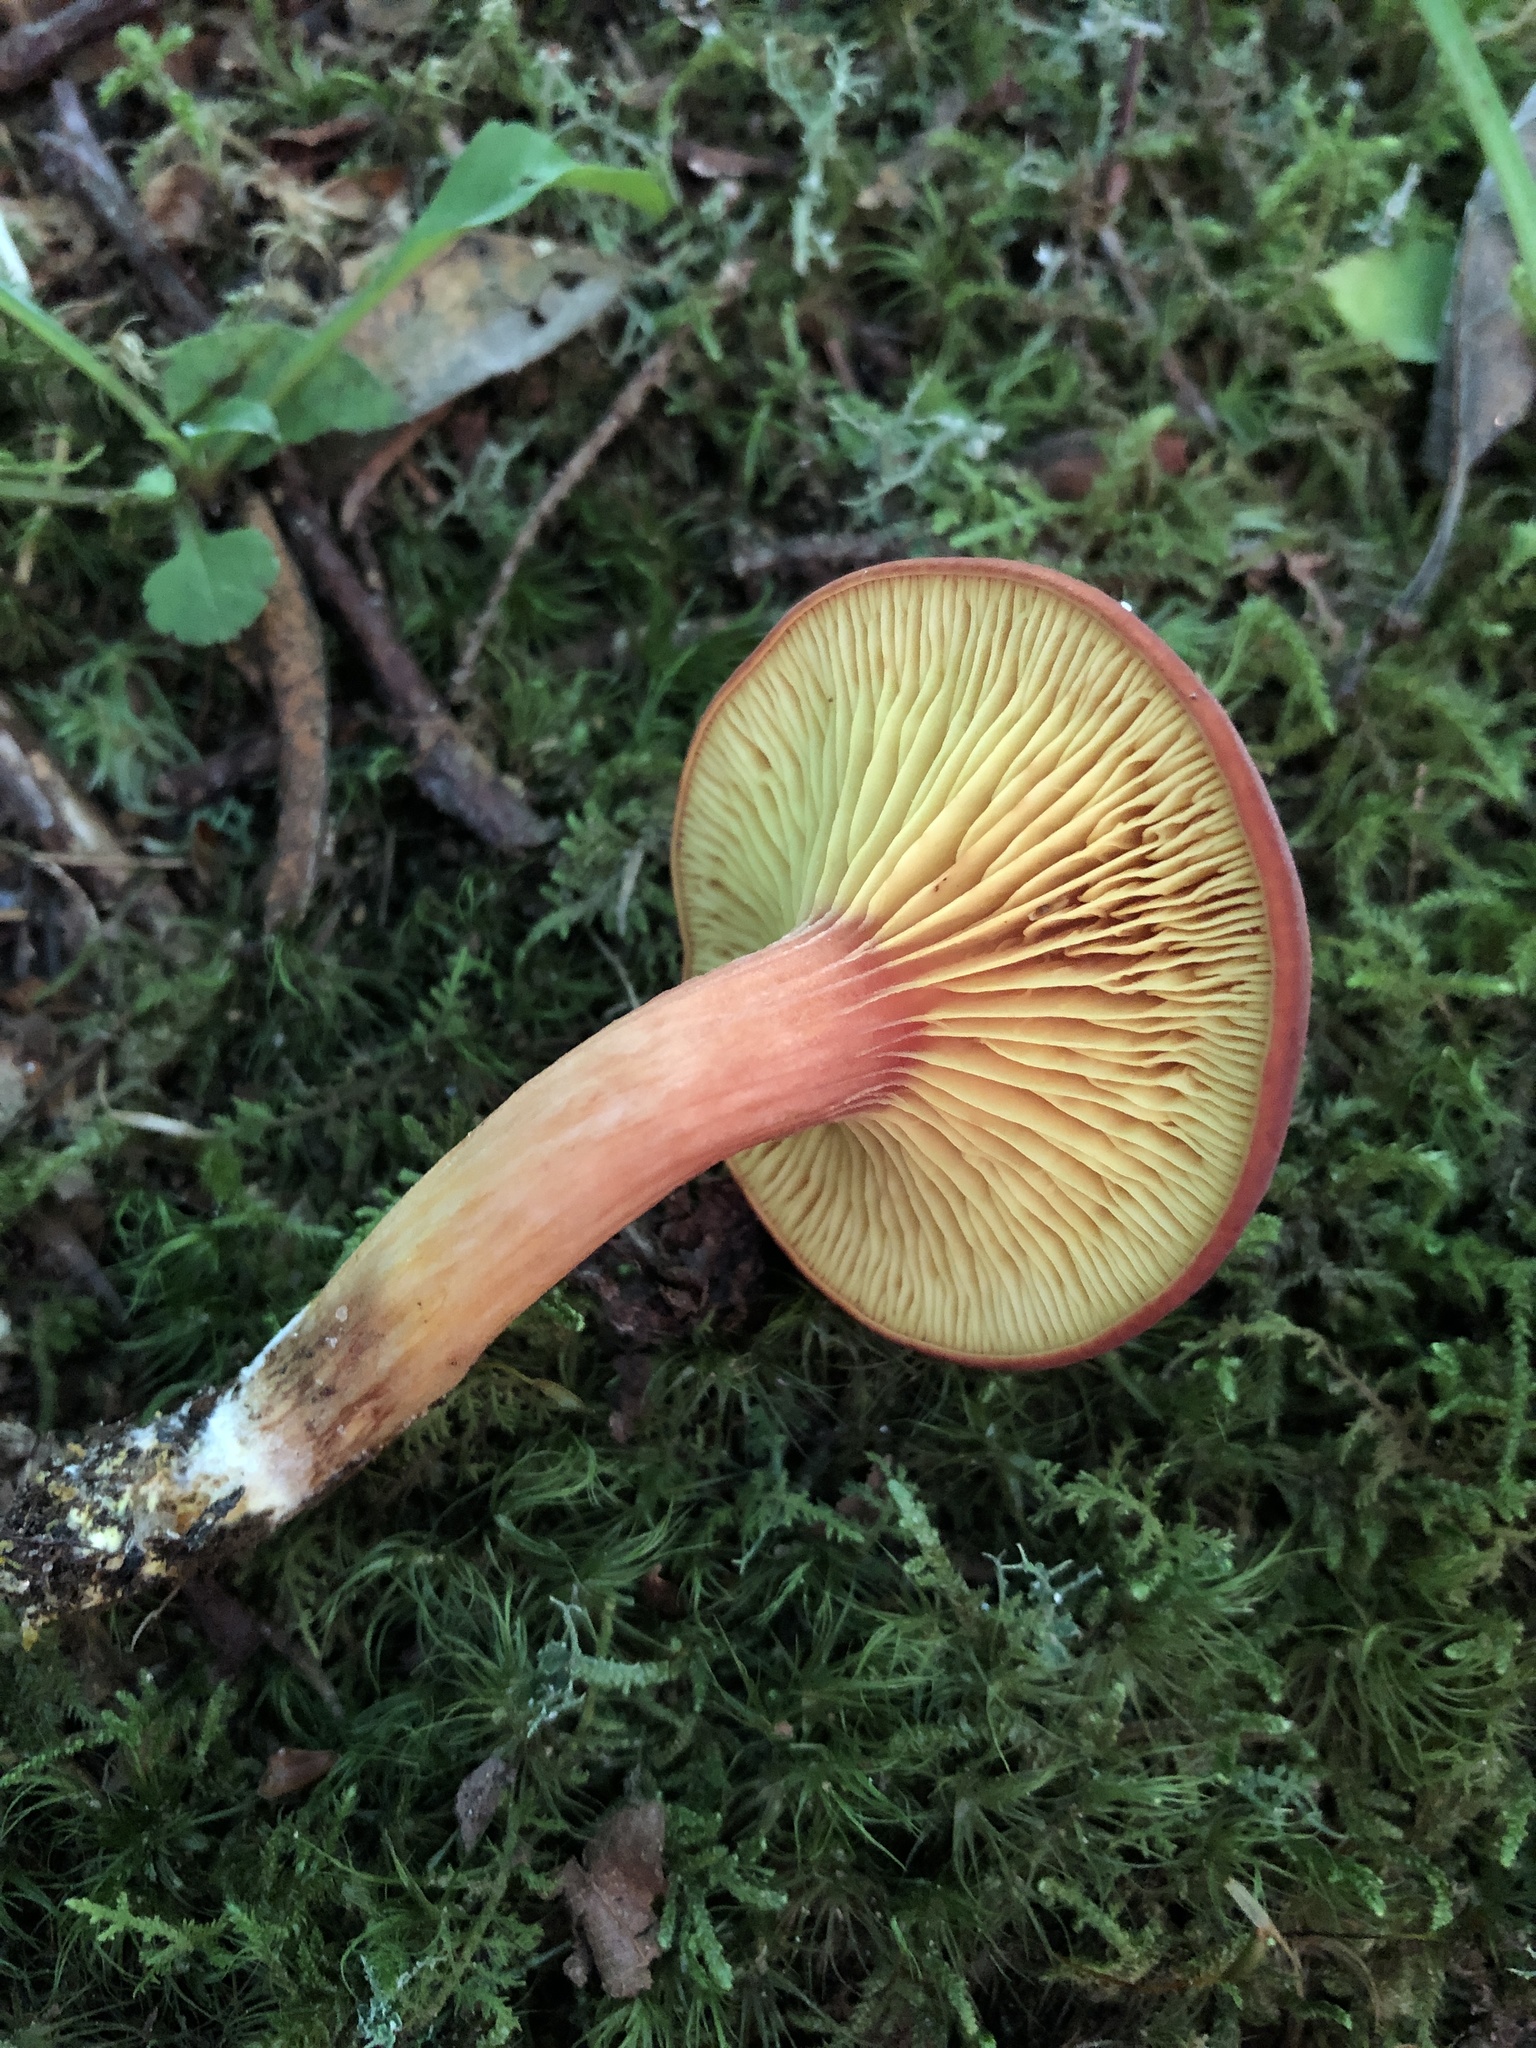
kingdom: Fungi
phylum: Basidiomycota
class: Agaricomycetes
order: Boletales
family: Boletaceae
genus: Phylloporus
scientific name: Phylloporus rhodoxanthus
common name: Golden gilled bolete
